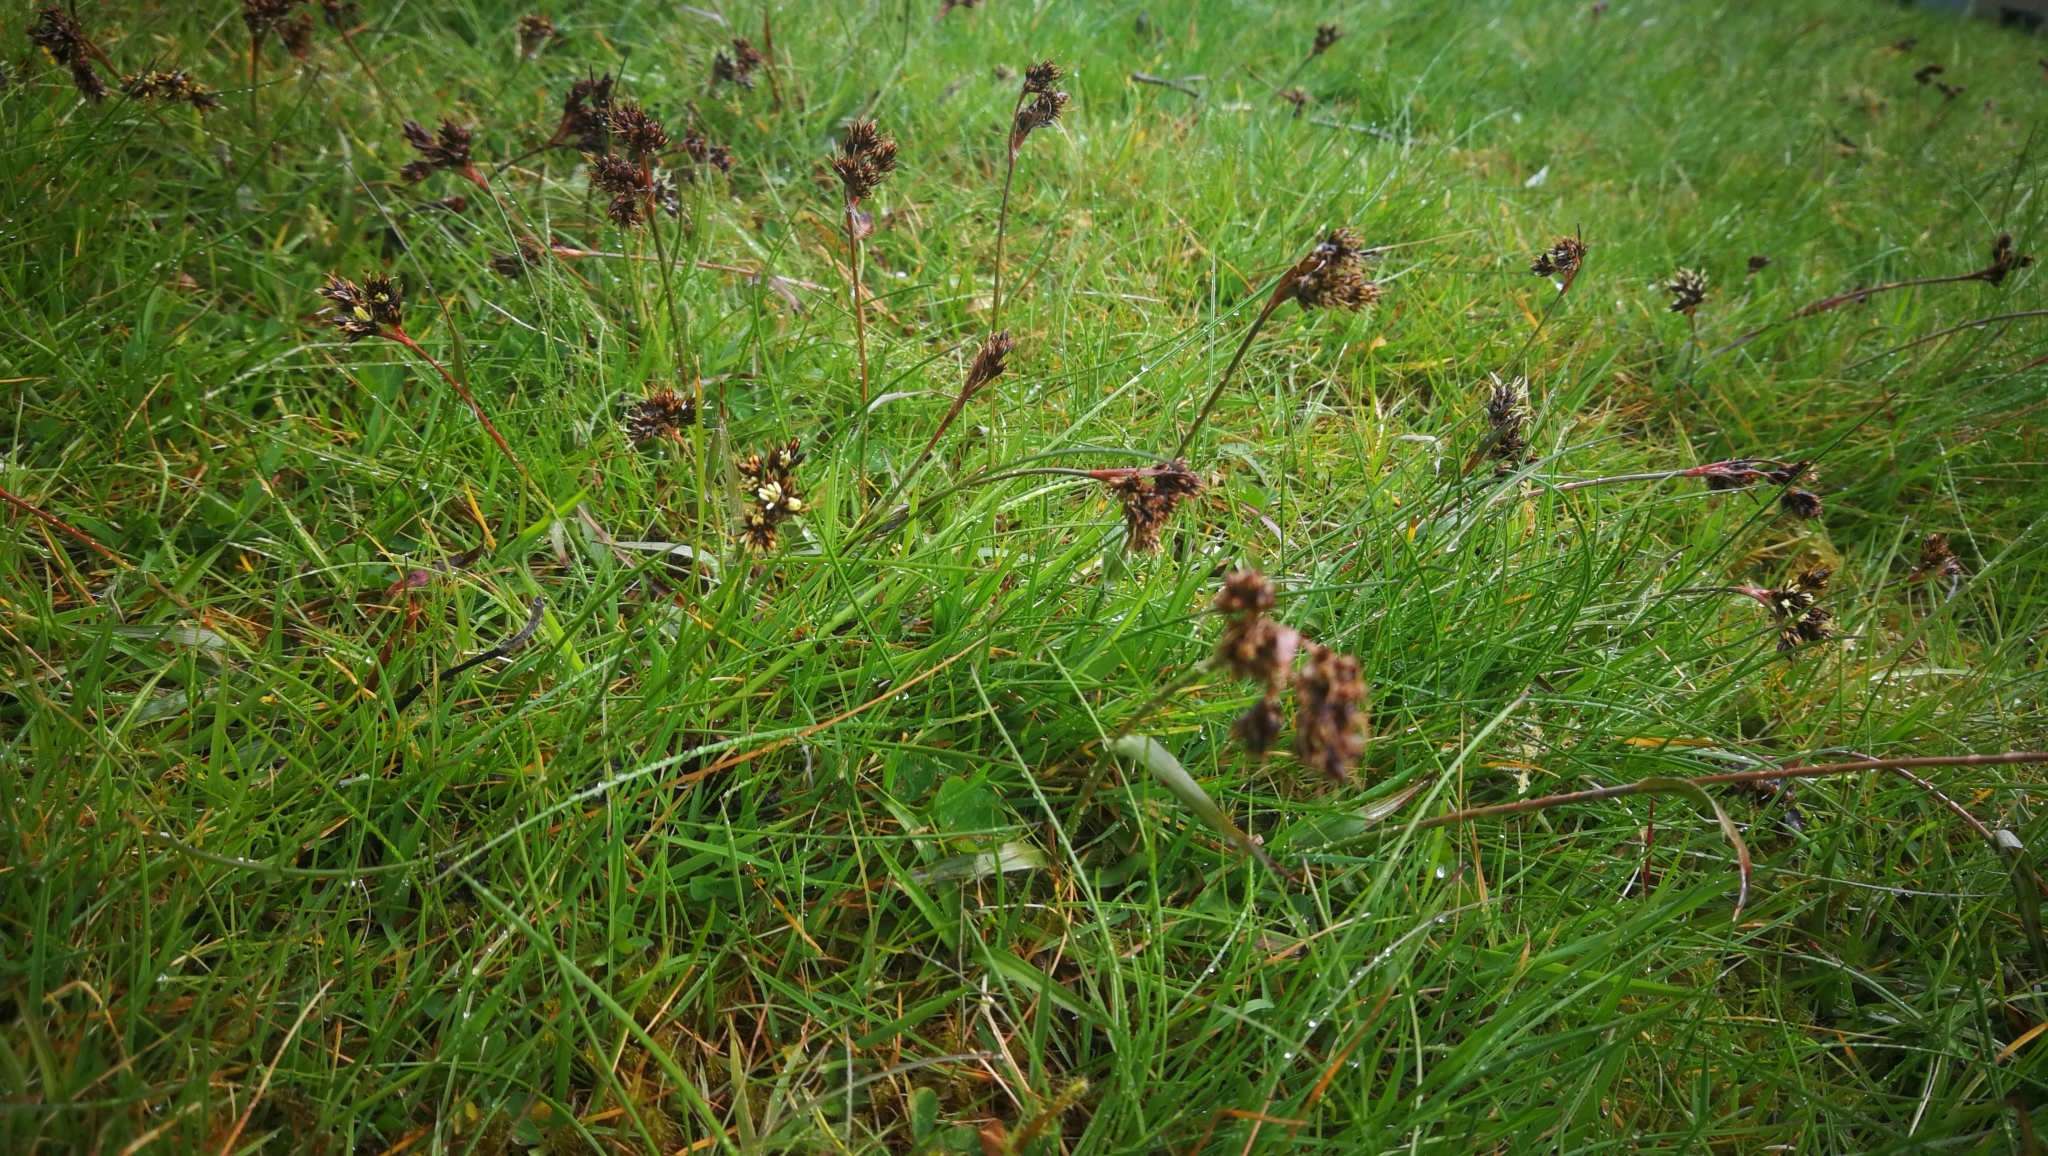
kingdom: Plantae
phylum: Tracheophyta
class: Liliopsida
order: Poales
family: Juncaceae
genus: Luzula
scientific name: Luzula campestris
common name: Field wood-rush
